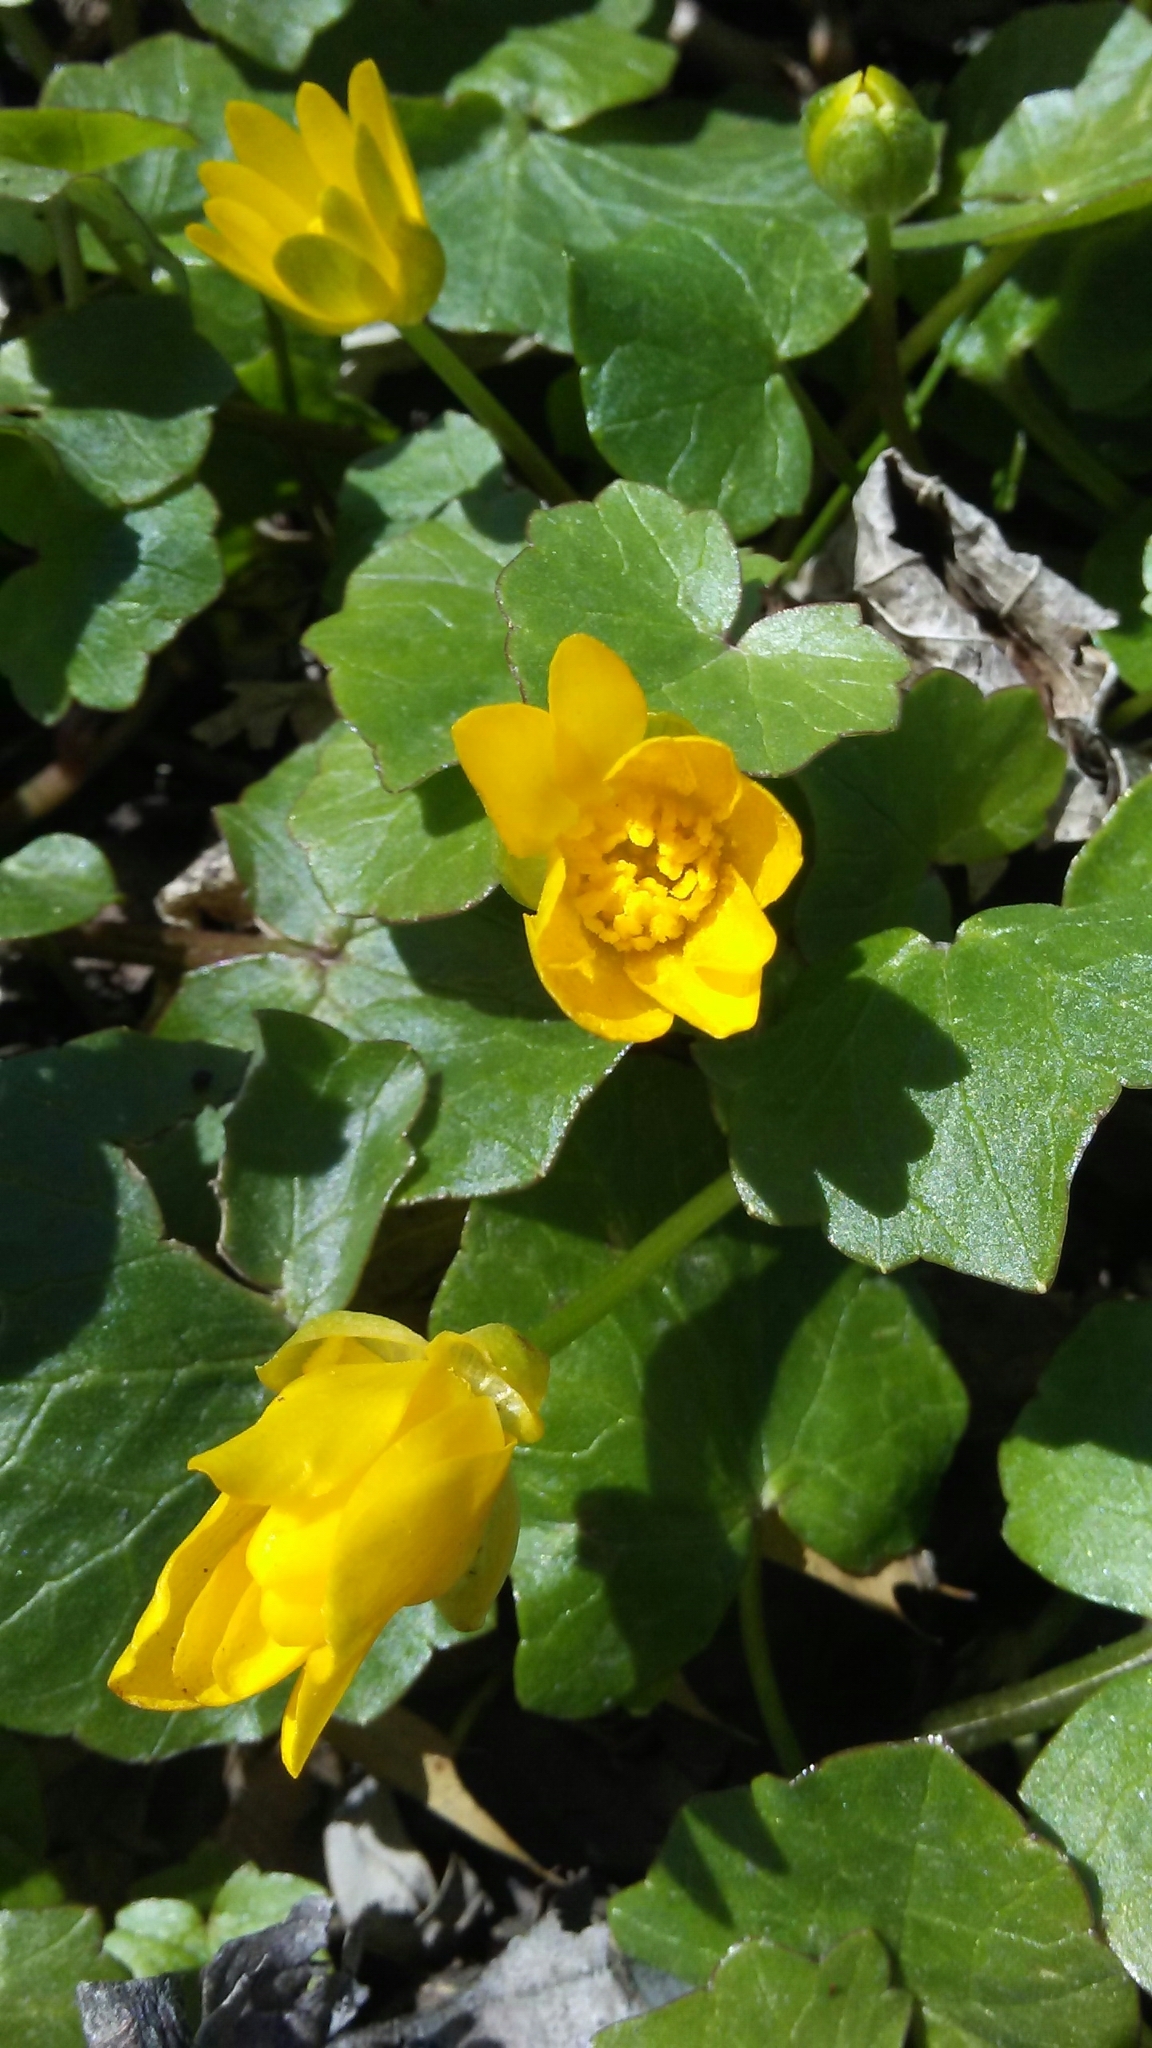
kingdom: Plantae
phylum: Tracheophyta
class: Magnoliopsida
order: Ranunculales
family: Ranunculaceae
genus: Ficaria
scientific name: Ficaria verna
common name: Lesser celandine
